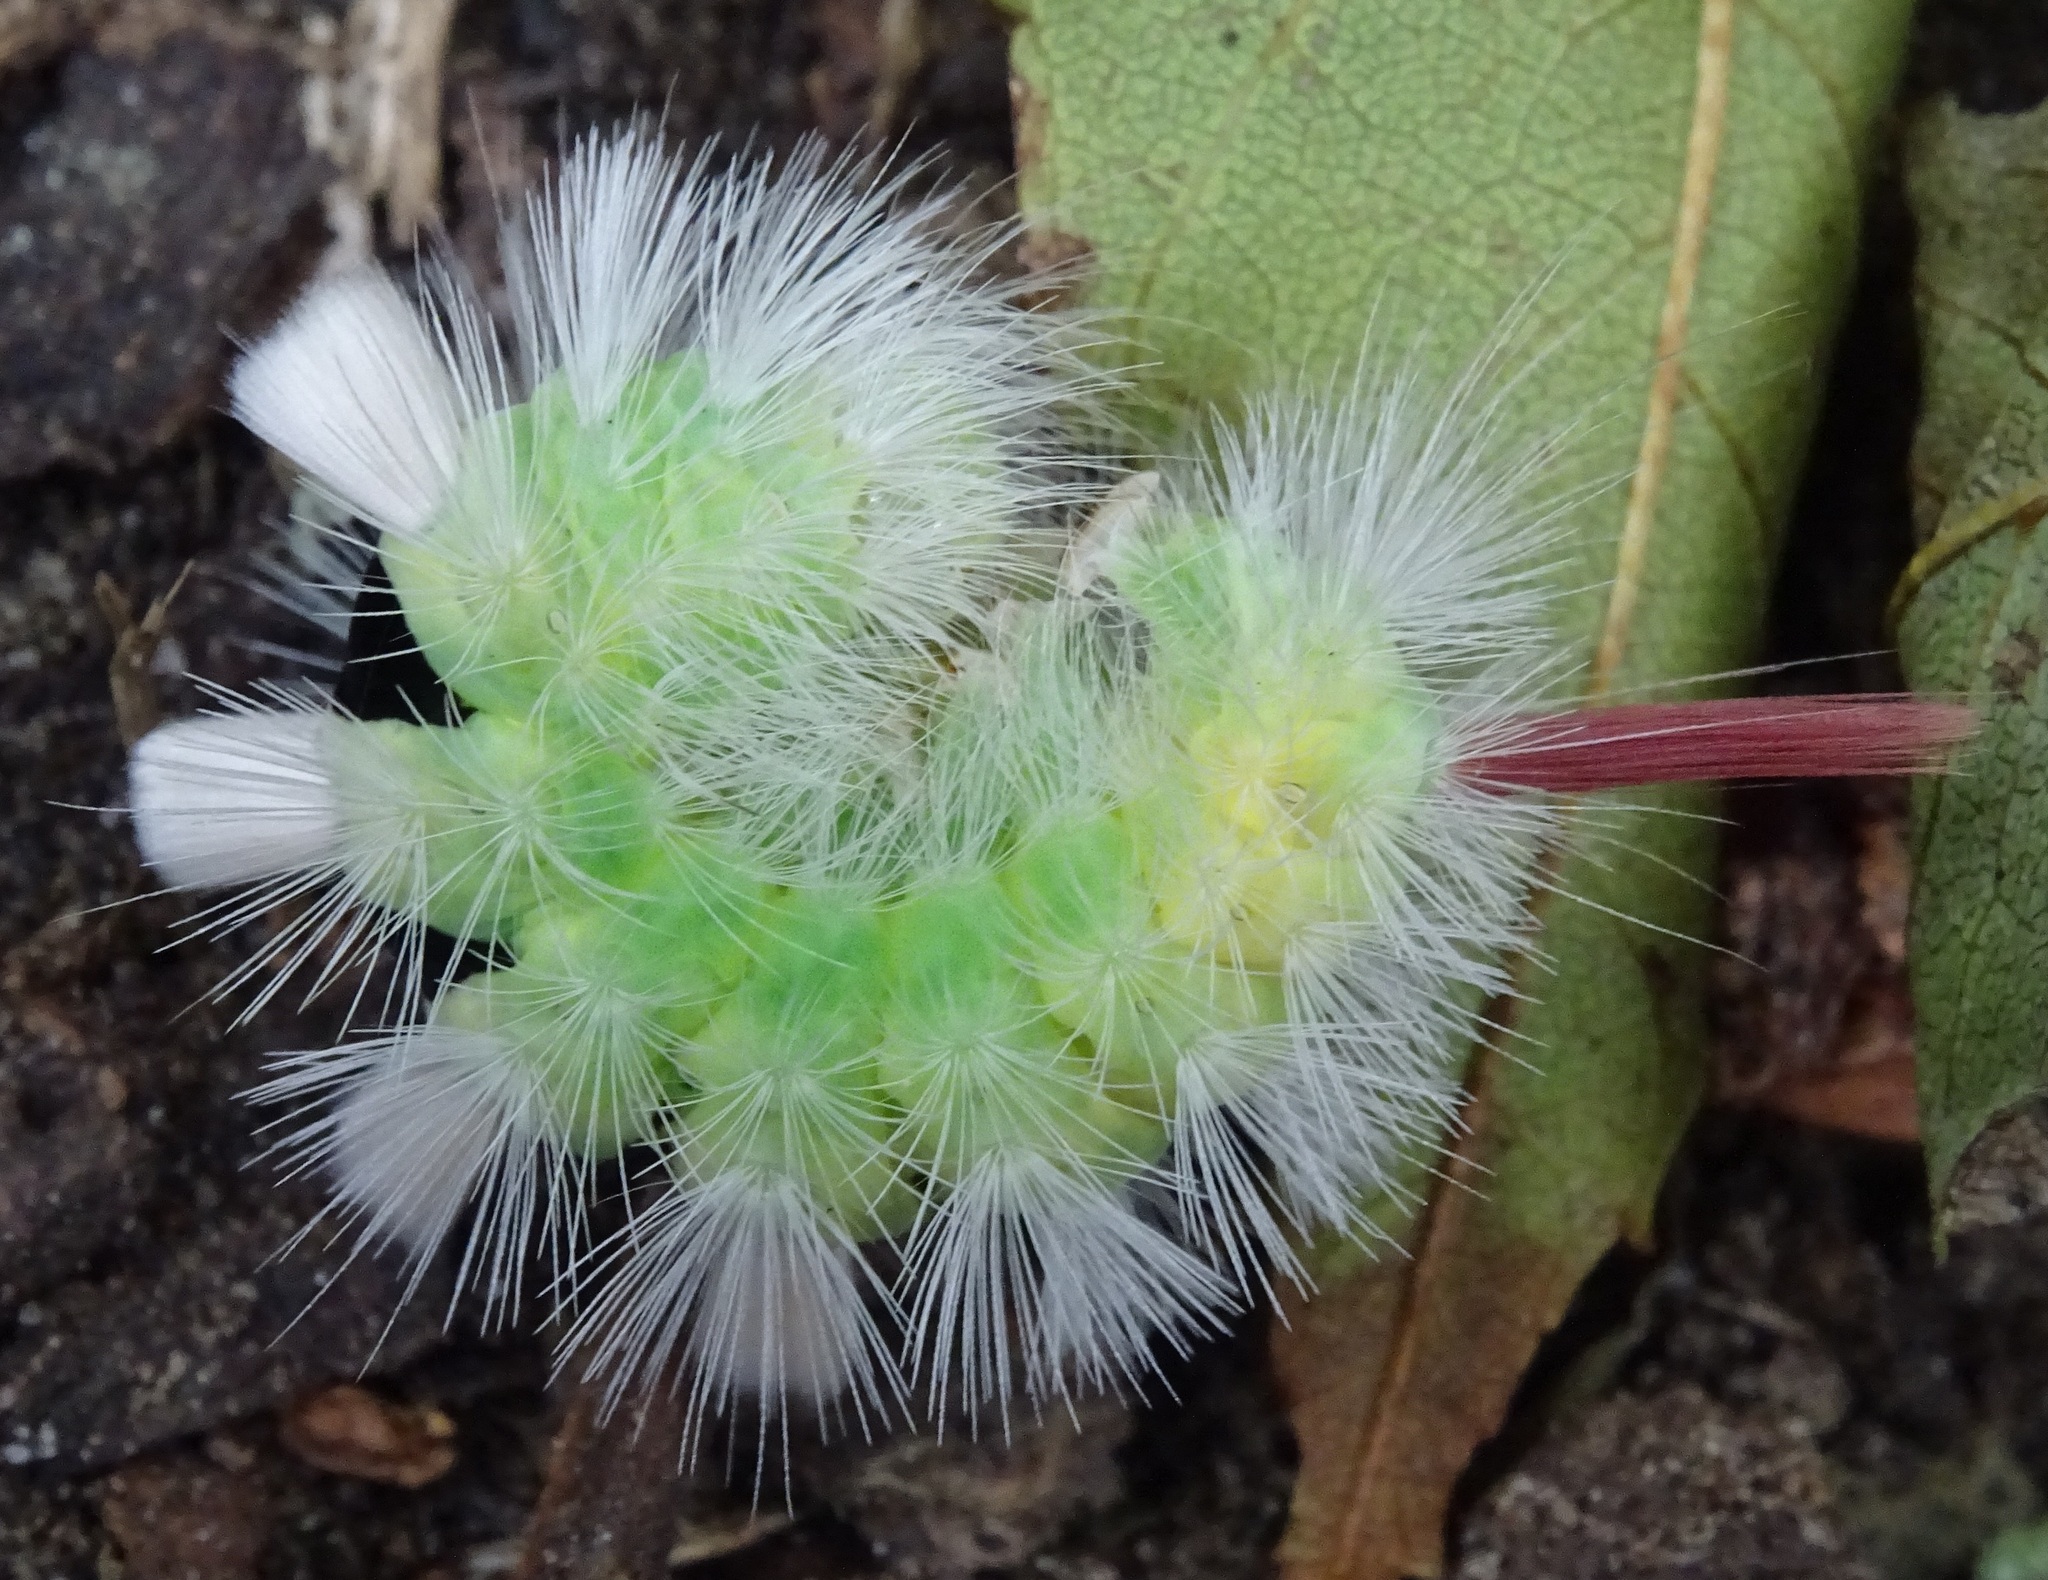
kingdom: Animalia
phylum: Arthropoda
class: Insecta
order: Lepidoptera
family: Erebidae
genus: Calliteara
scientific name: Calliteara pudibunda
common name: Pale tussock
